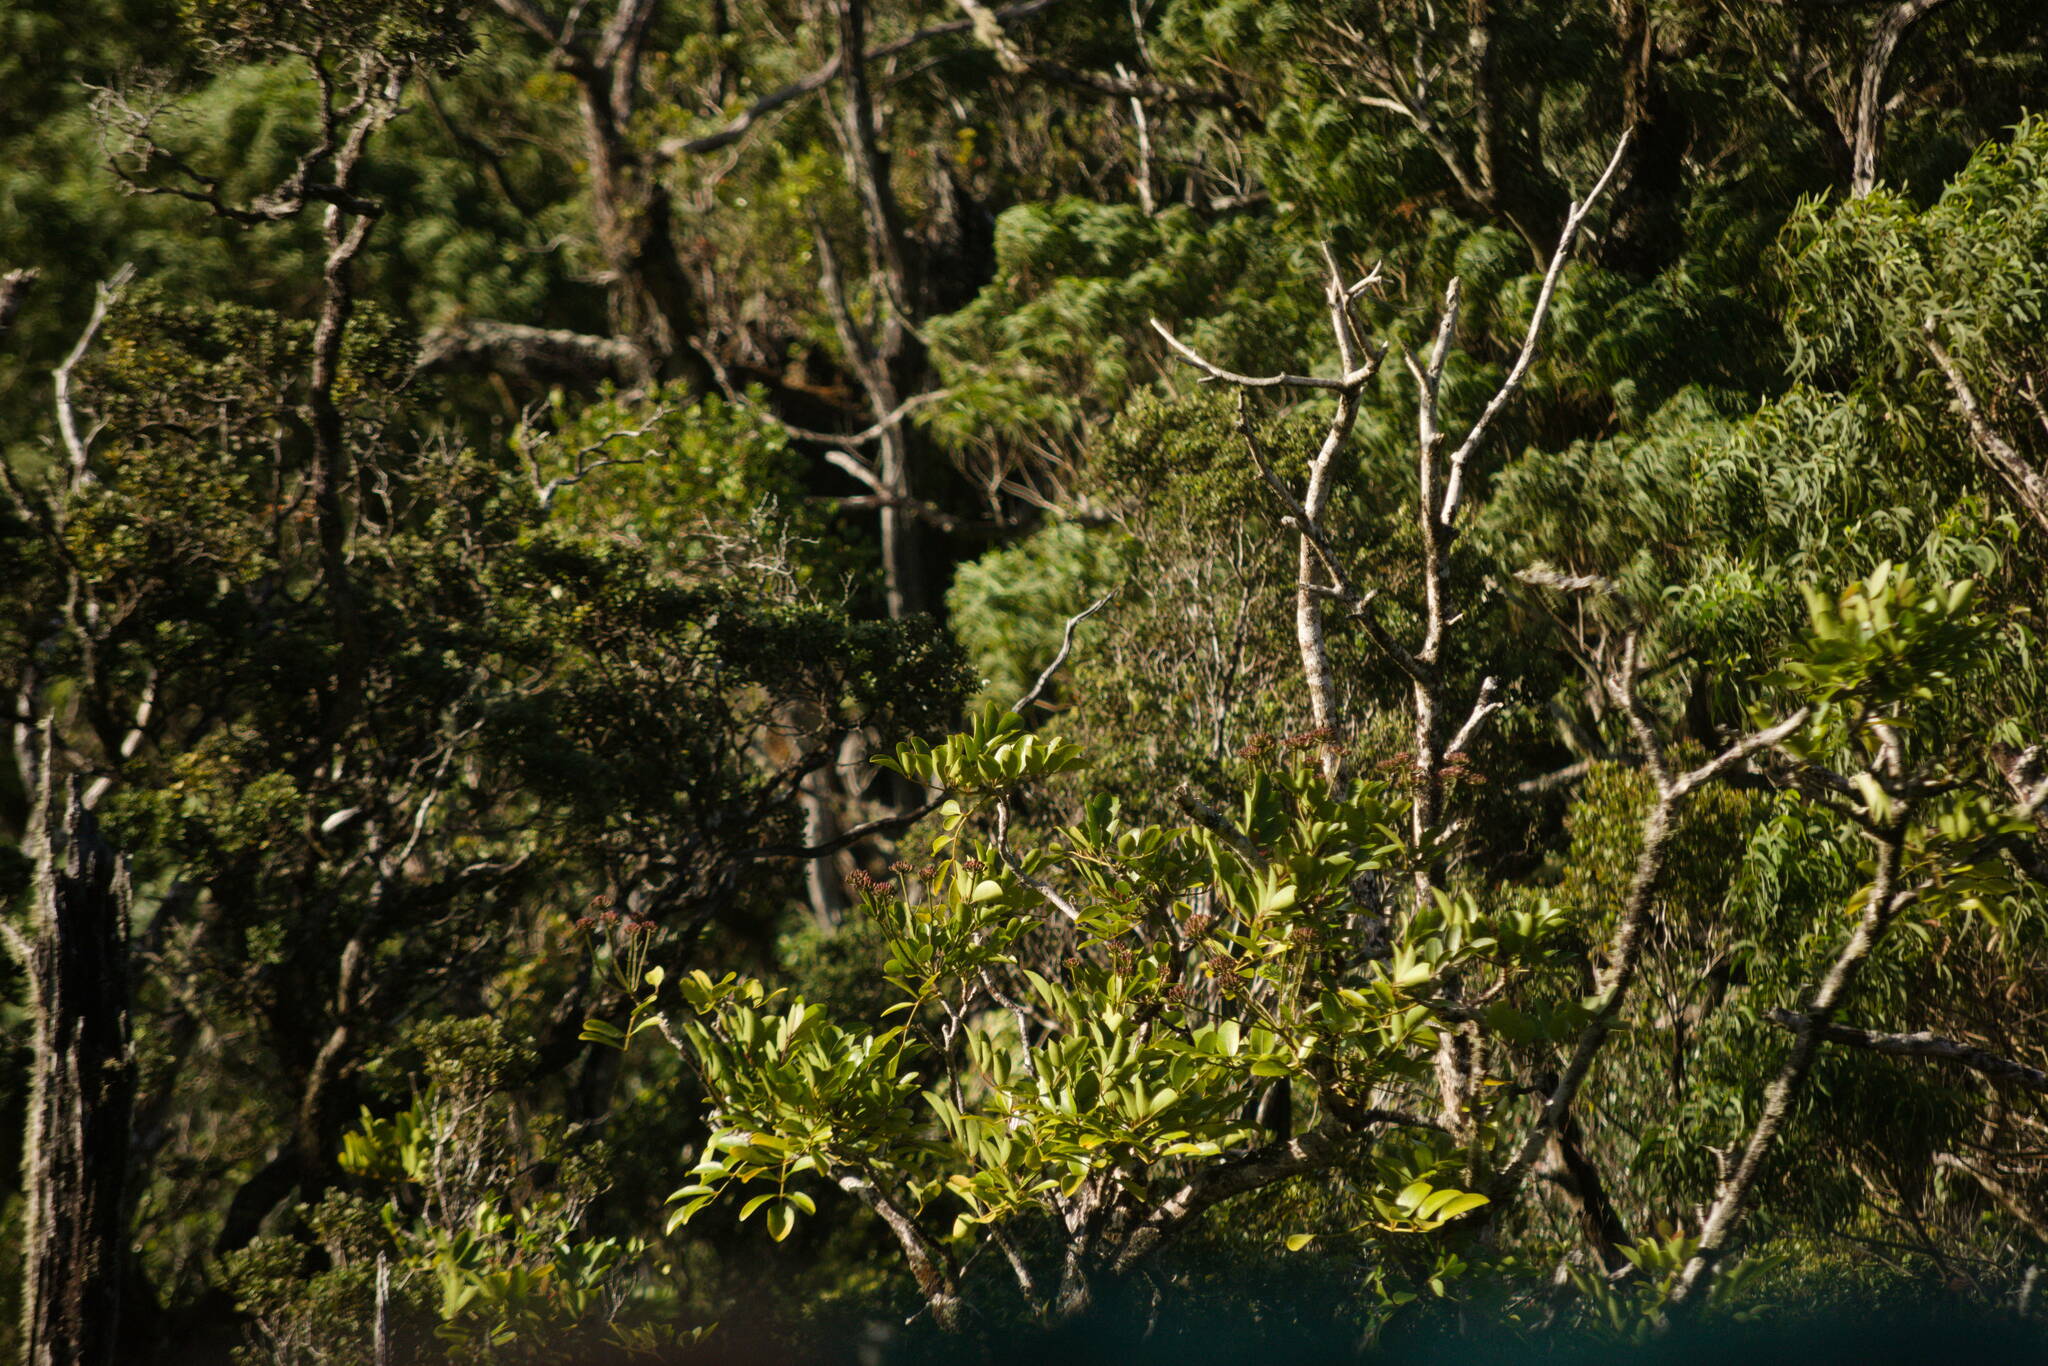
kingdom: Plantae
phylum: Tracheophyta
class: Magnoliopsida
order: Apiales
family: Araliaceae
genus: Polyscias
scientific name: Polyscias oahuensis
